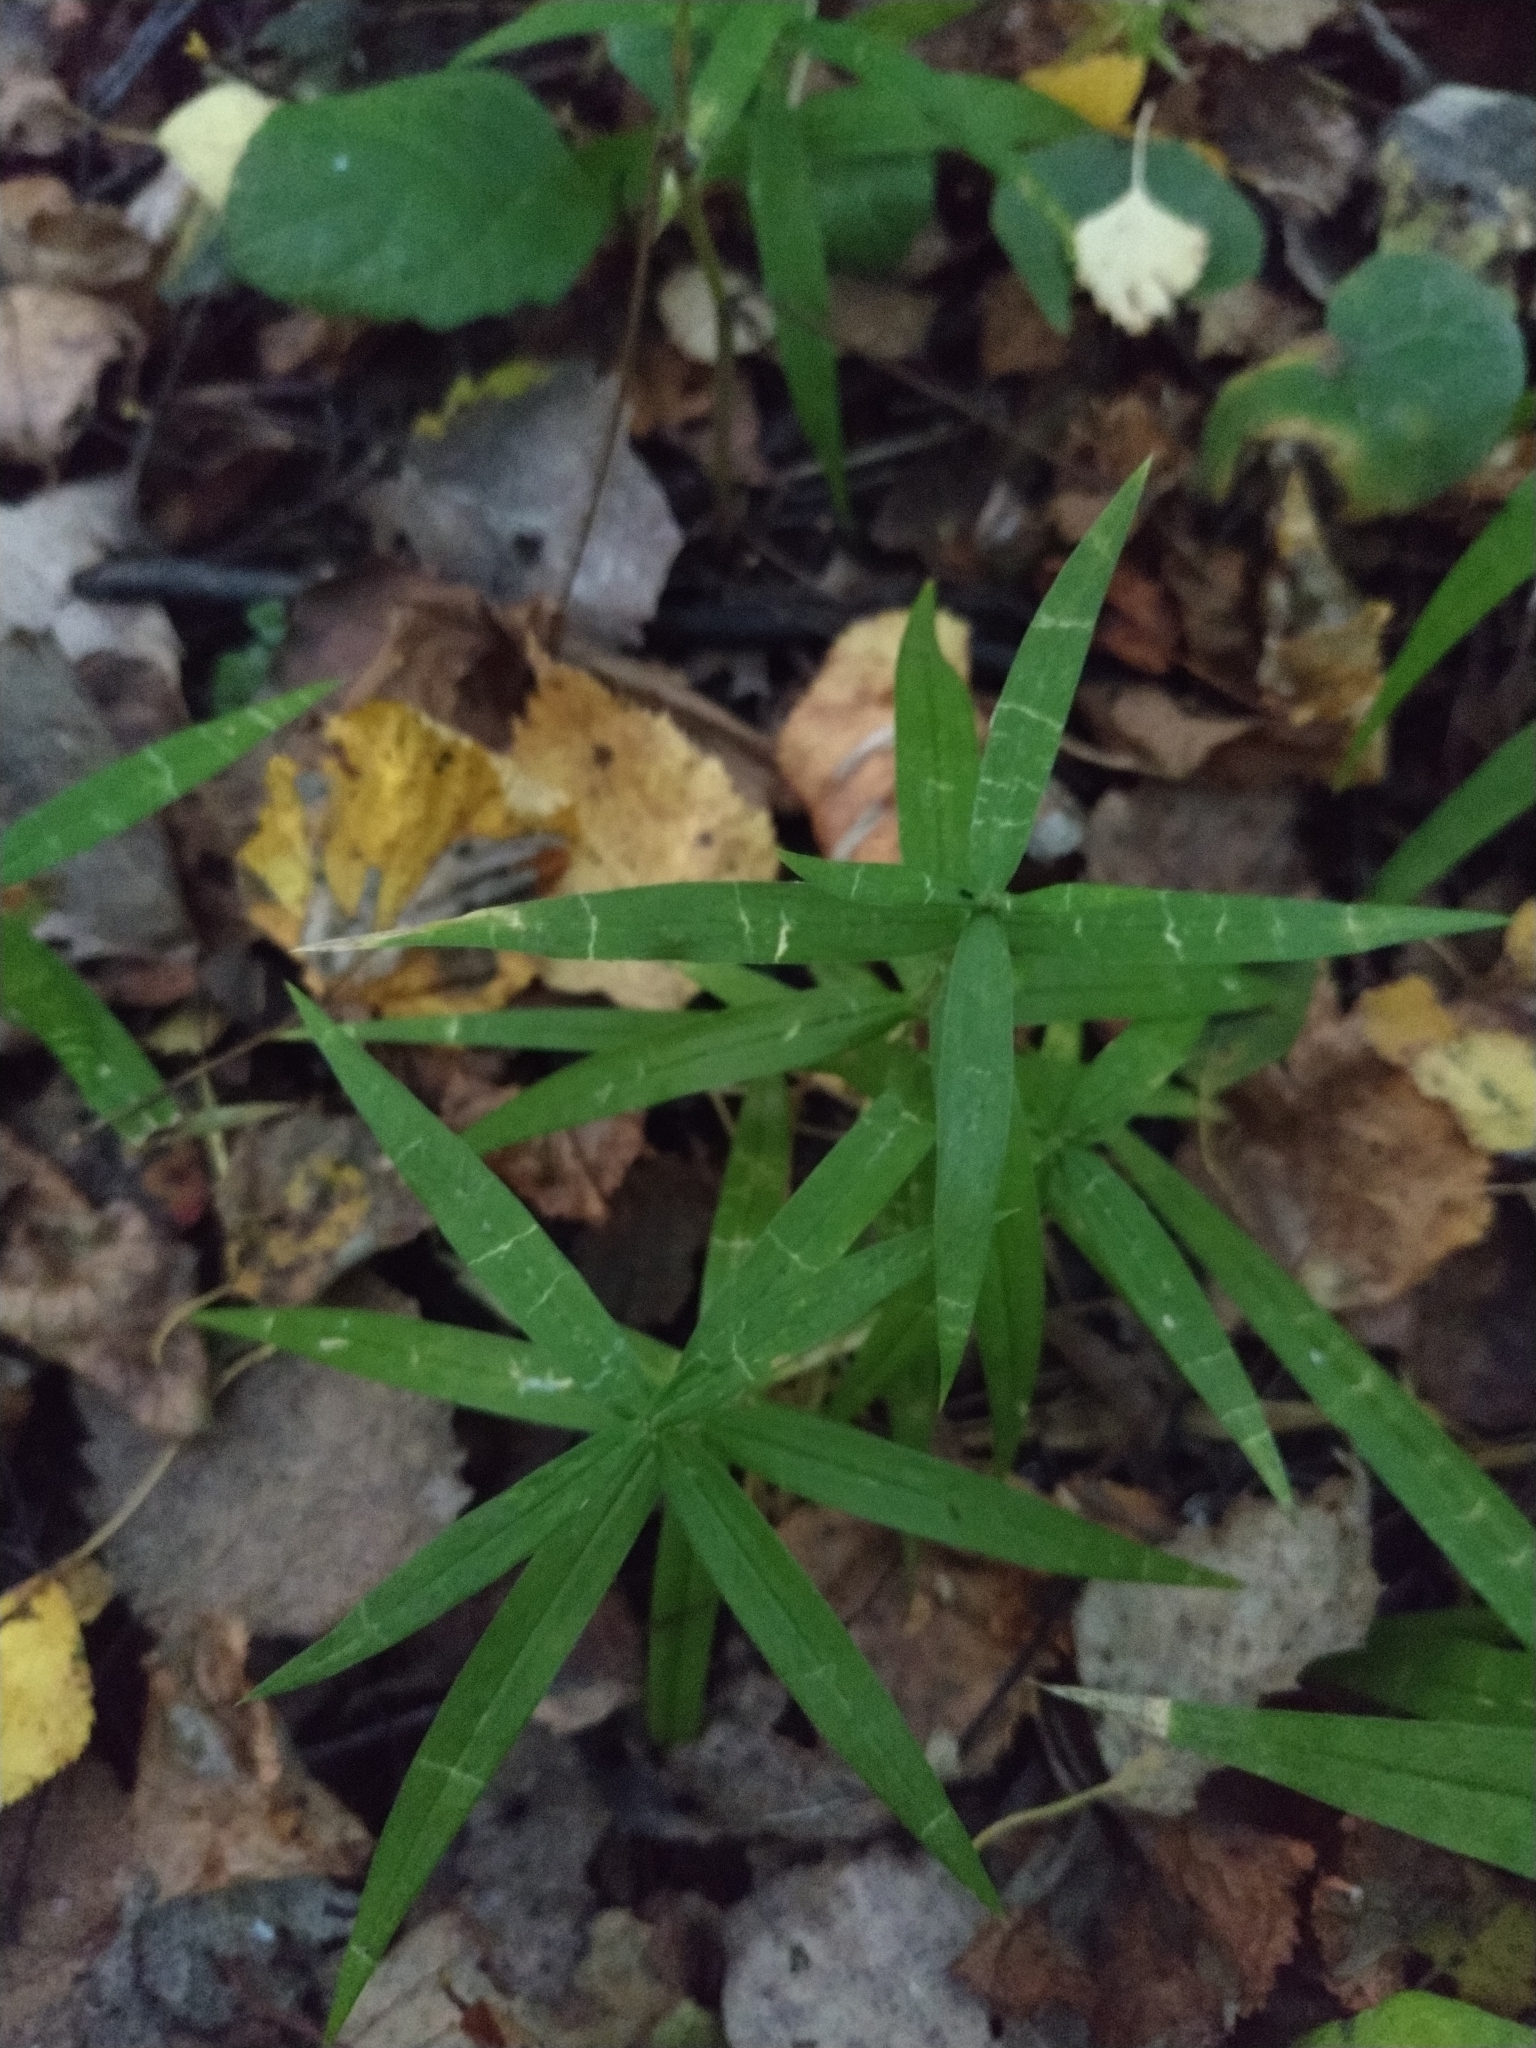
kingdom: Plantae
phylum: Tracheophyta
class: Magnoliopsida
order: Caryophyllales
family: Caryophyllaceae
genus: Rabelera
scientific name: Rabelera holostea
